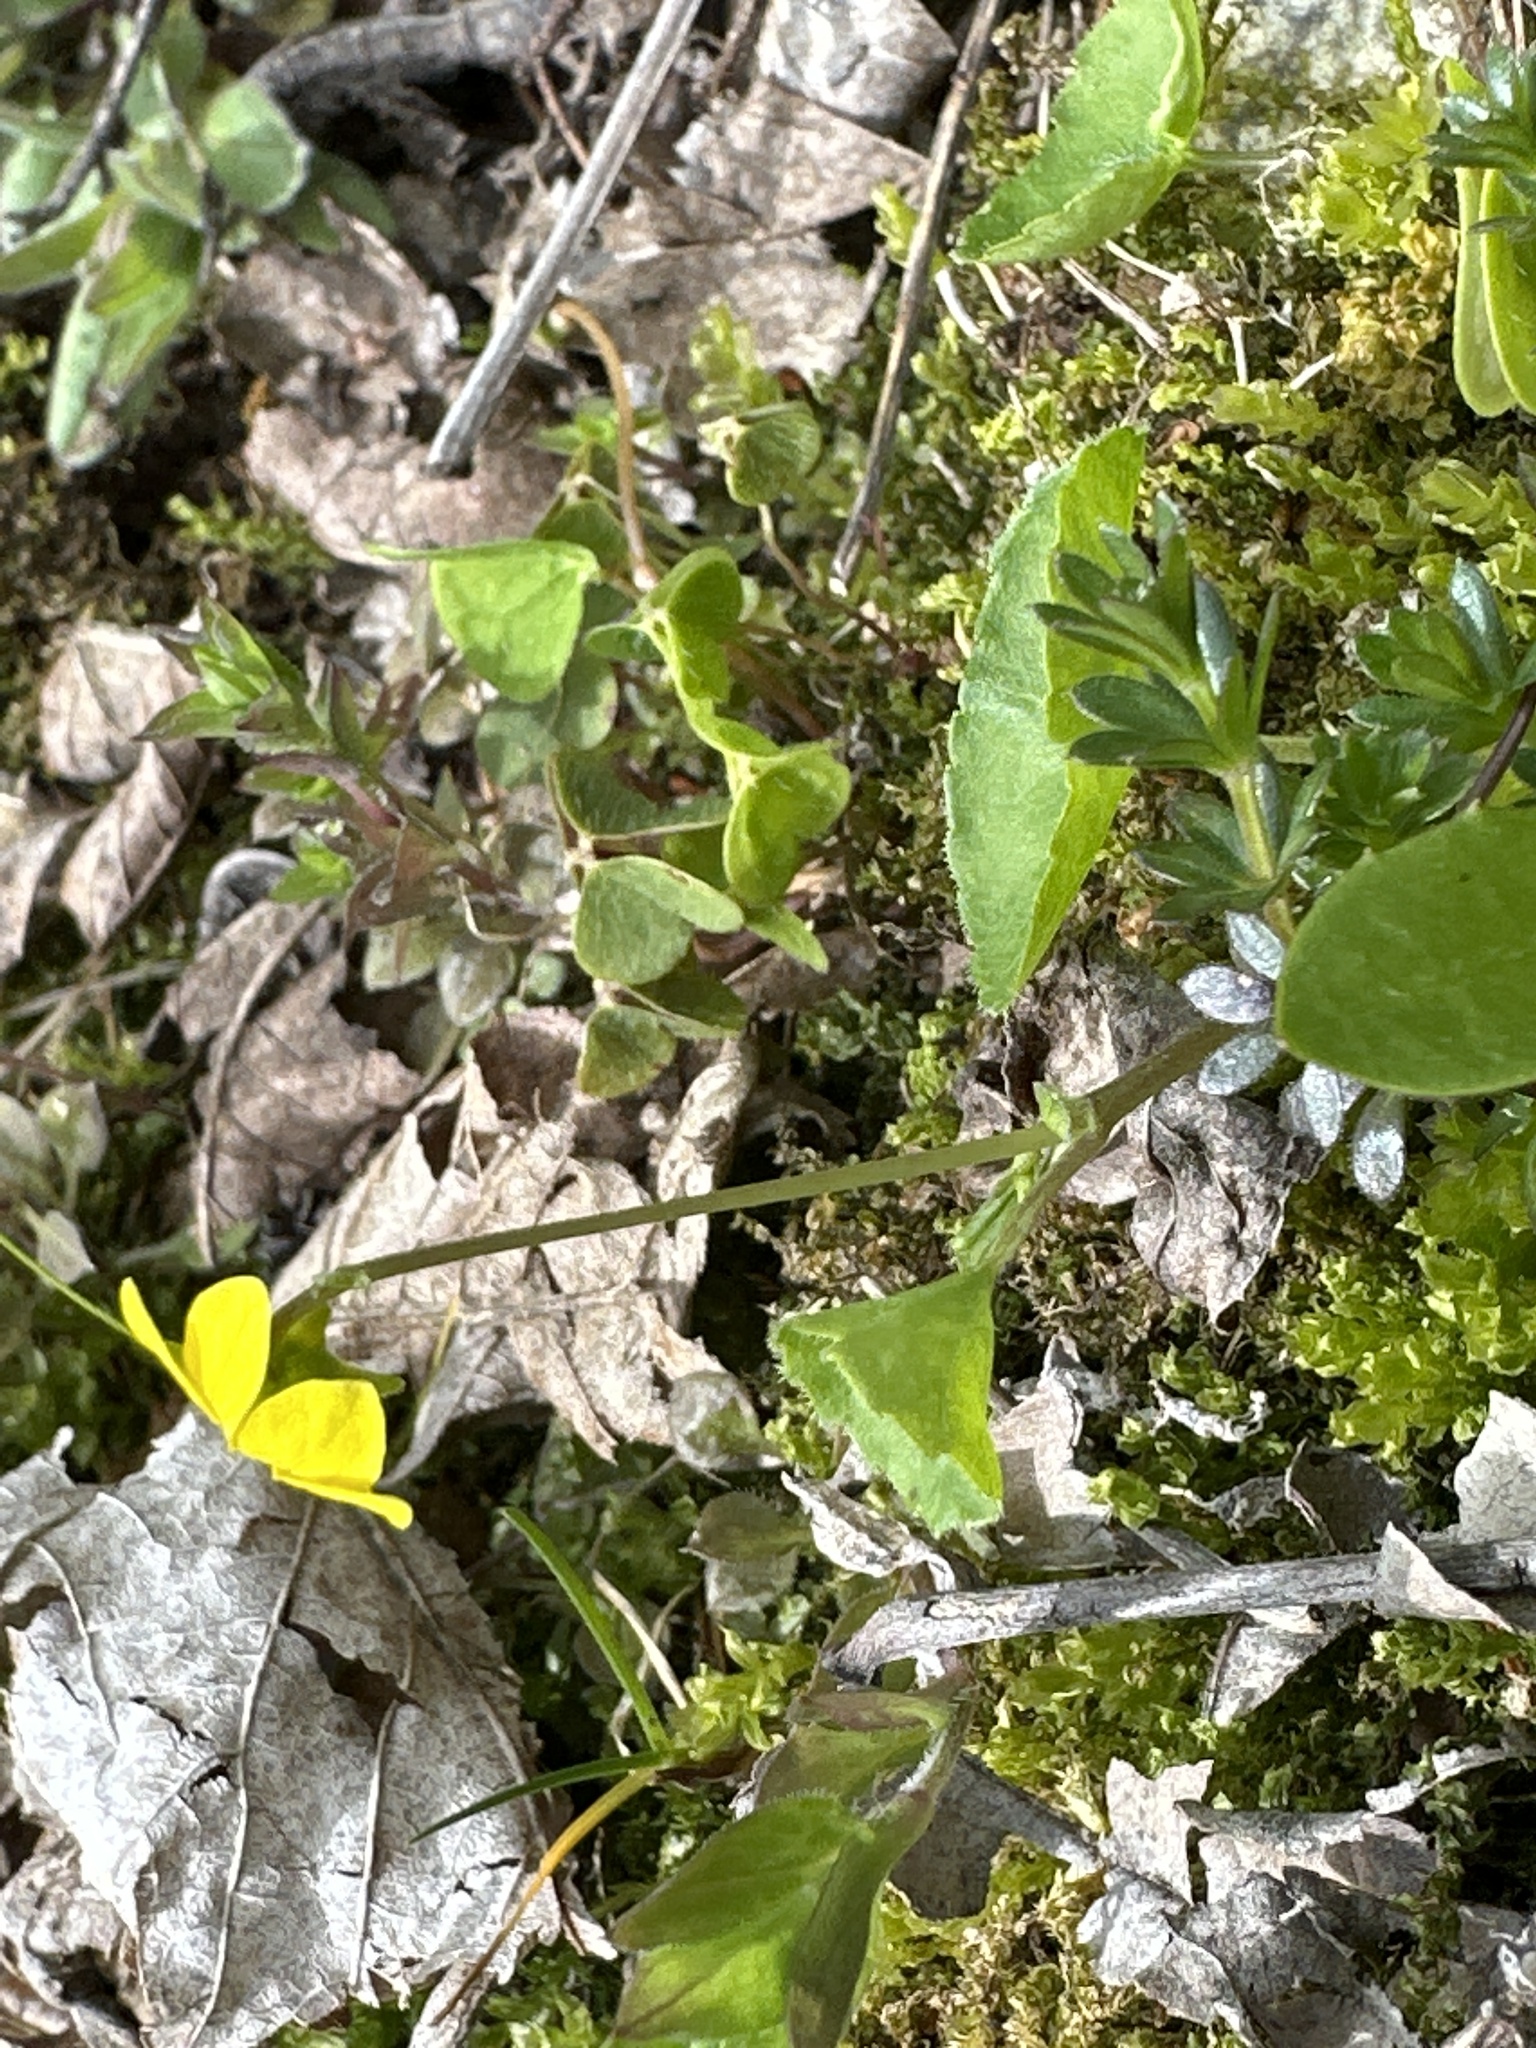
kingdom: Plantae
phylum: Tracheophyta
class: Magnoliopsida
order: Malpighiales
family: Violaceae
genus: Viola
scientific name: Viola biflora
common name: Alpine yellow violet
